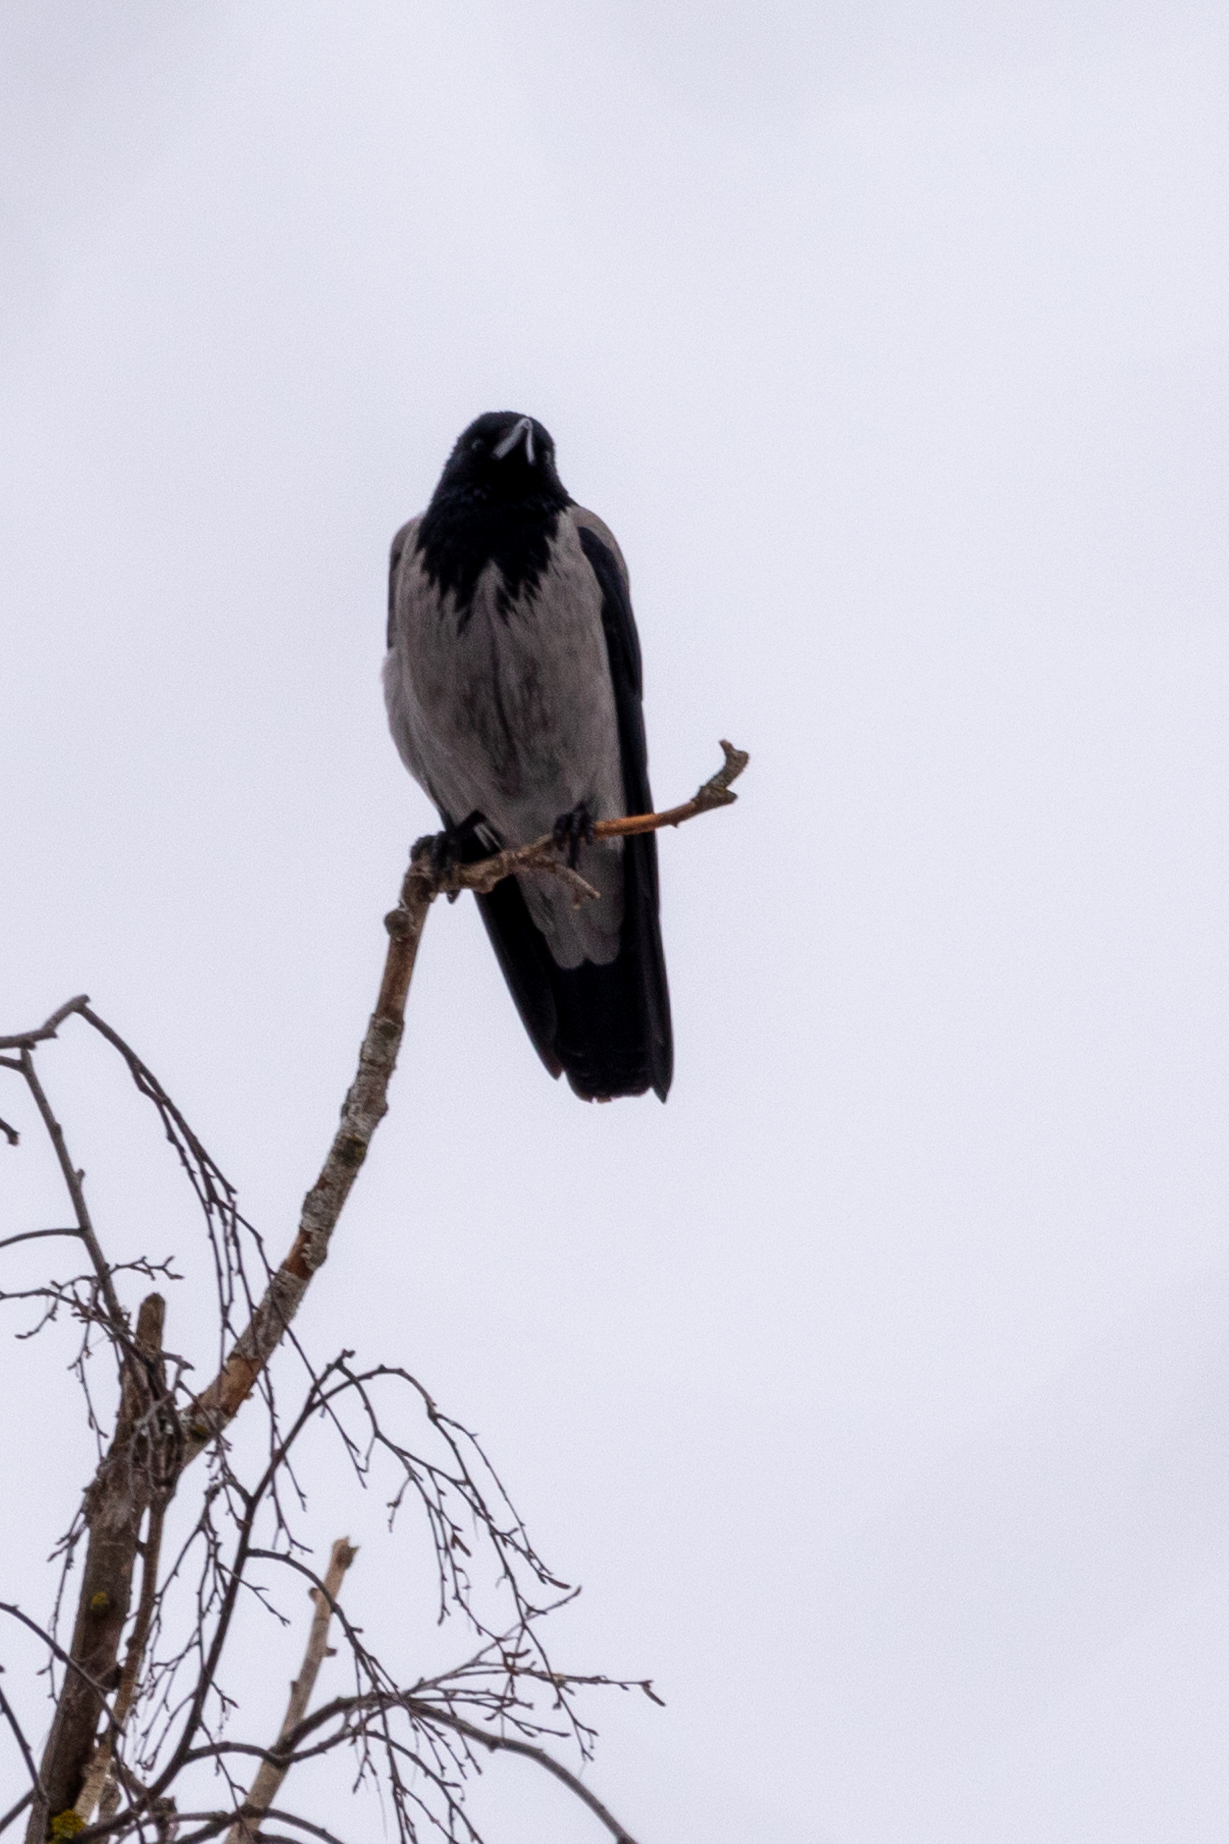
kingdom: Animalia
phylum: Chordata
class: Aves
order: Passeriformes
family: Corvidae
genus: Corvus
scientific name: Corvus cornix
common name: Hooded crow
